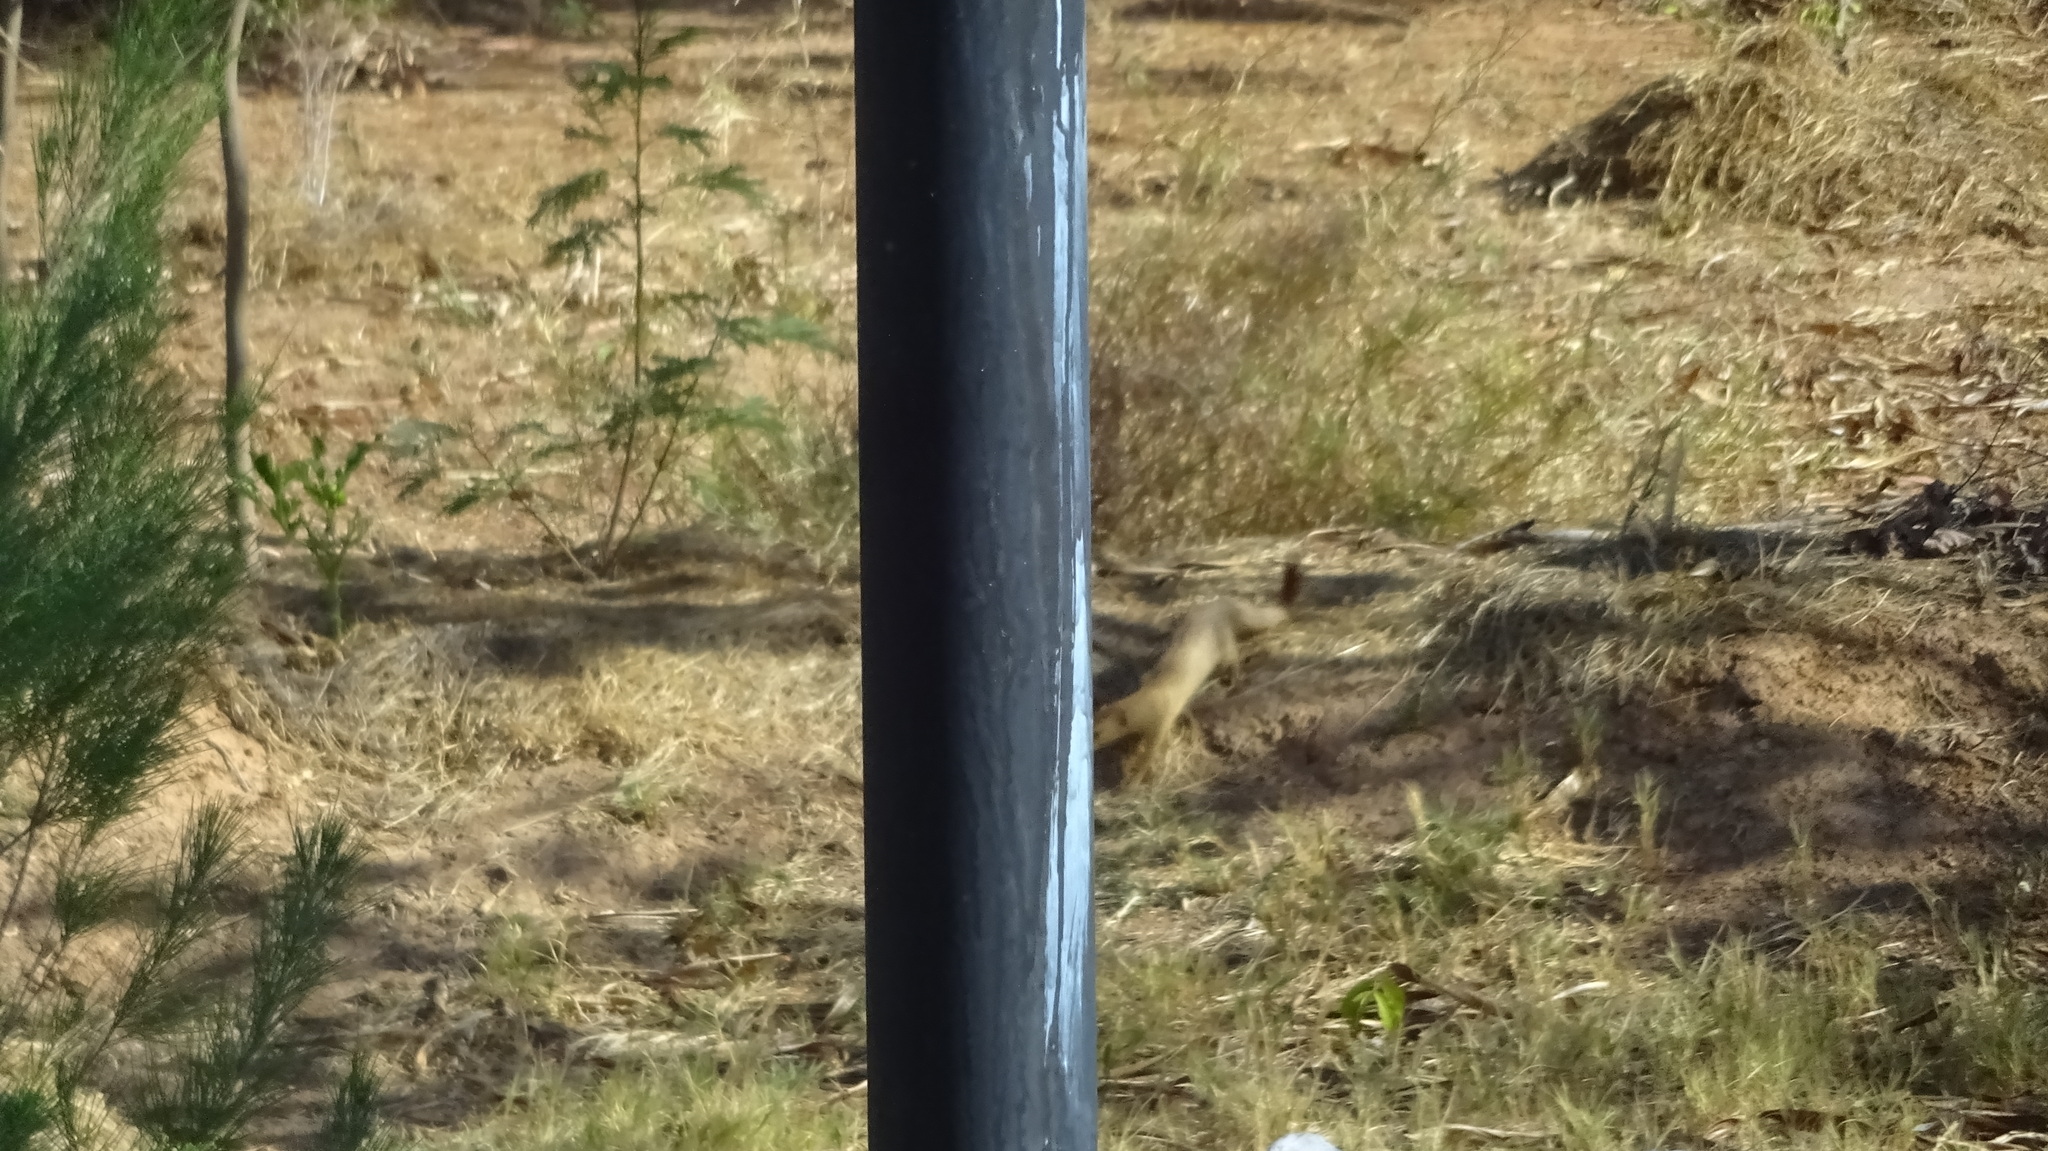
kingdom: Animalia
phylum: Chordata
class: Mammalia
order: Carnivora
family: Herpestidae
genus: Galerella
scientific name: Galerella sanguinea
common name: Slender mongoose
